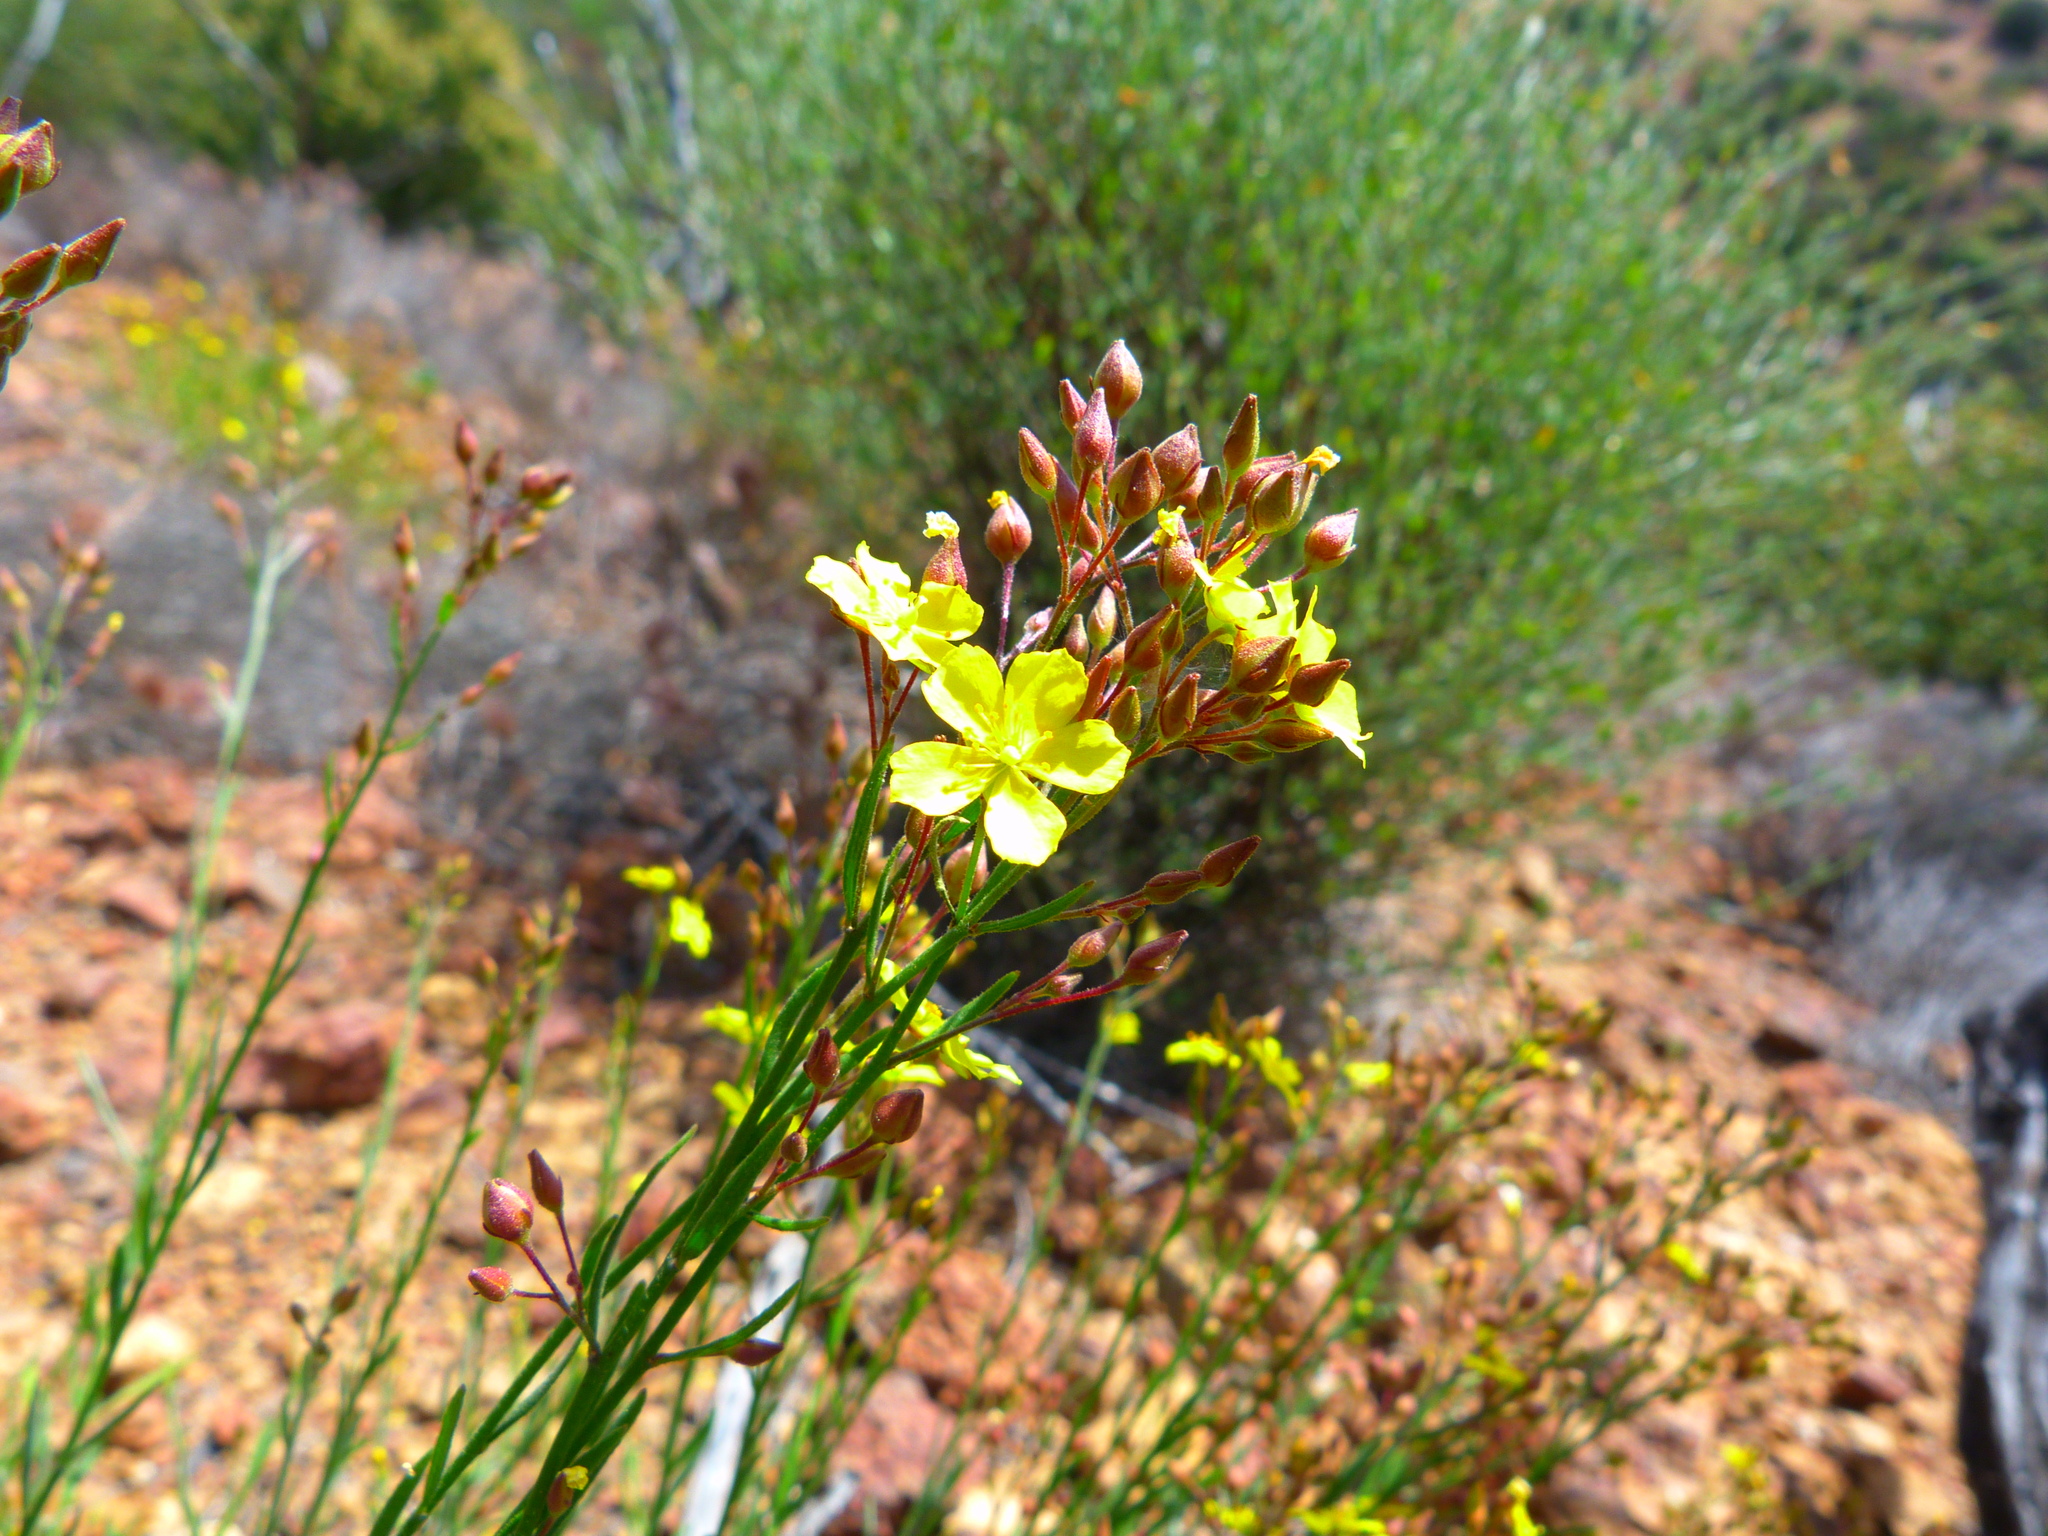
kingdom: Plantae
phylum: Tracheophyta
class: Magnoliopsida
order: Malvales
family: Cistaceae
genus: Crocanthemum
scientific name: Crocanthemum scoparium
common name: Broom-rose
